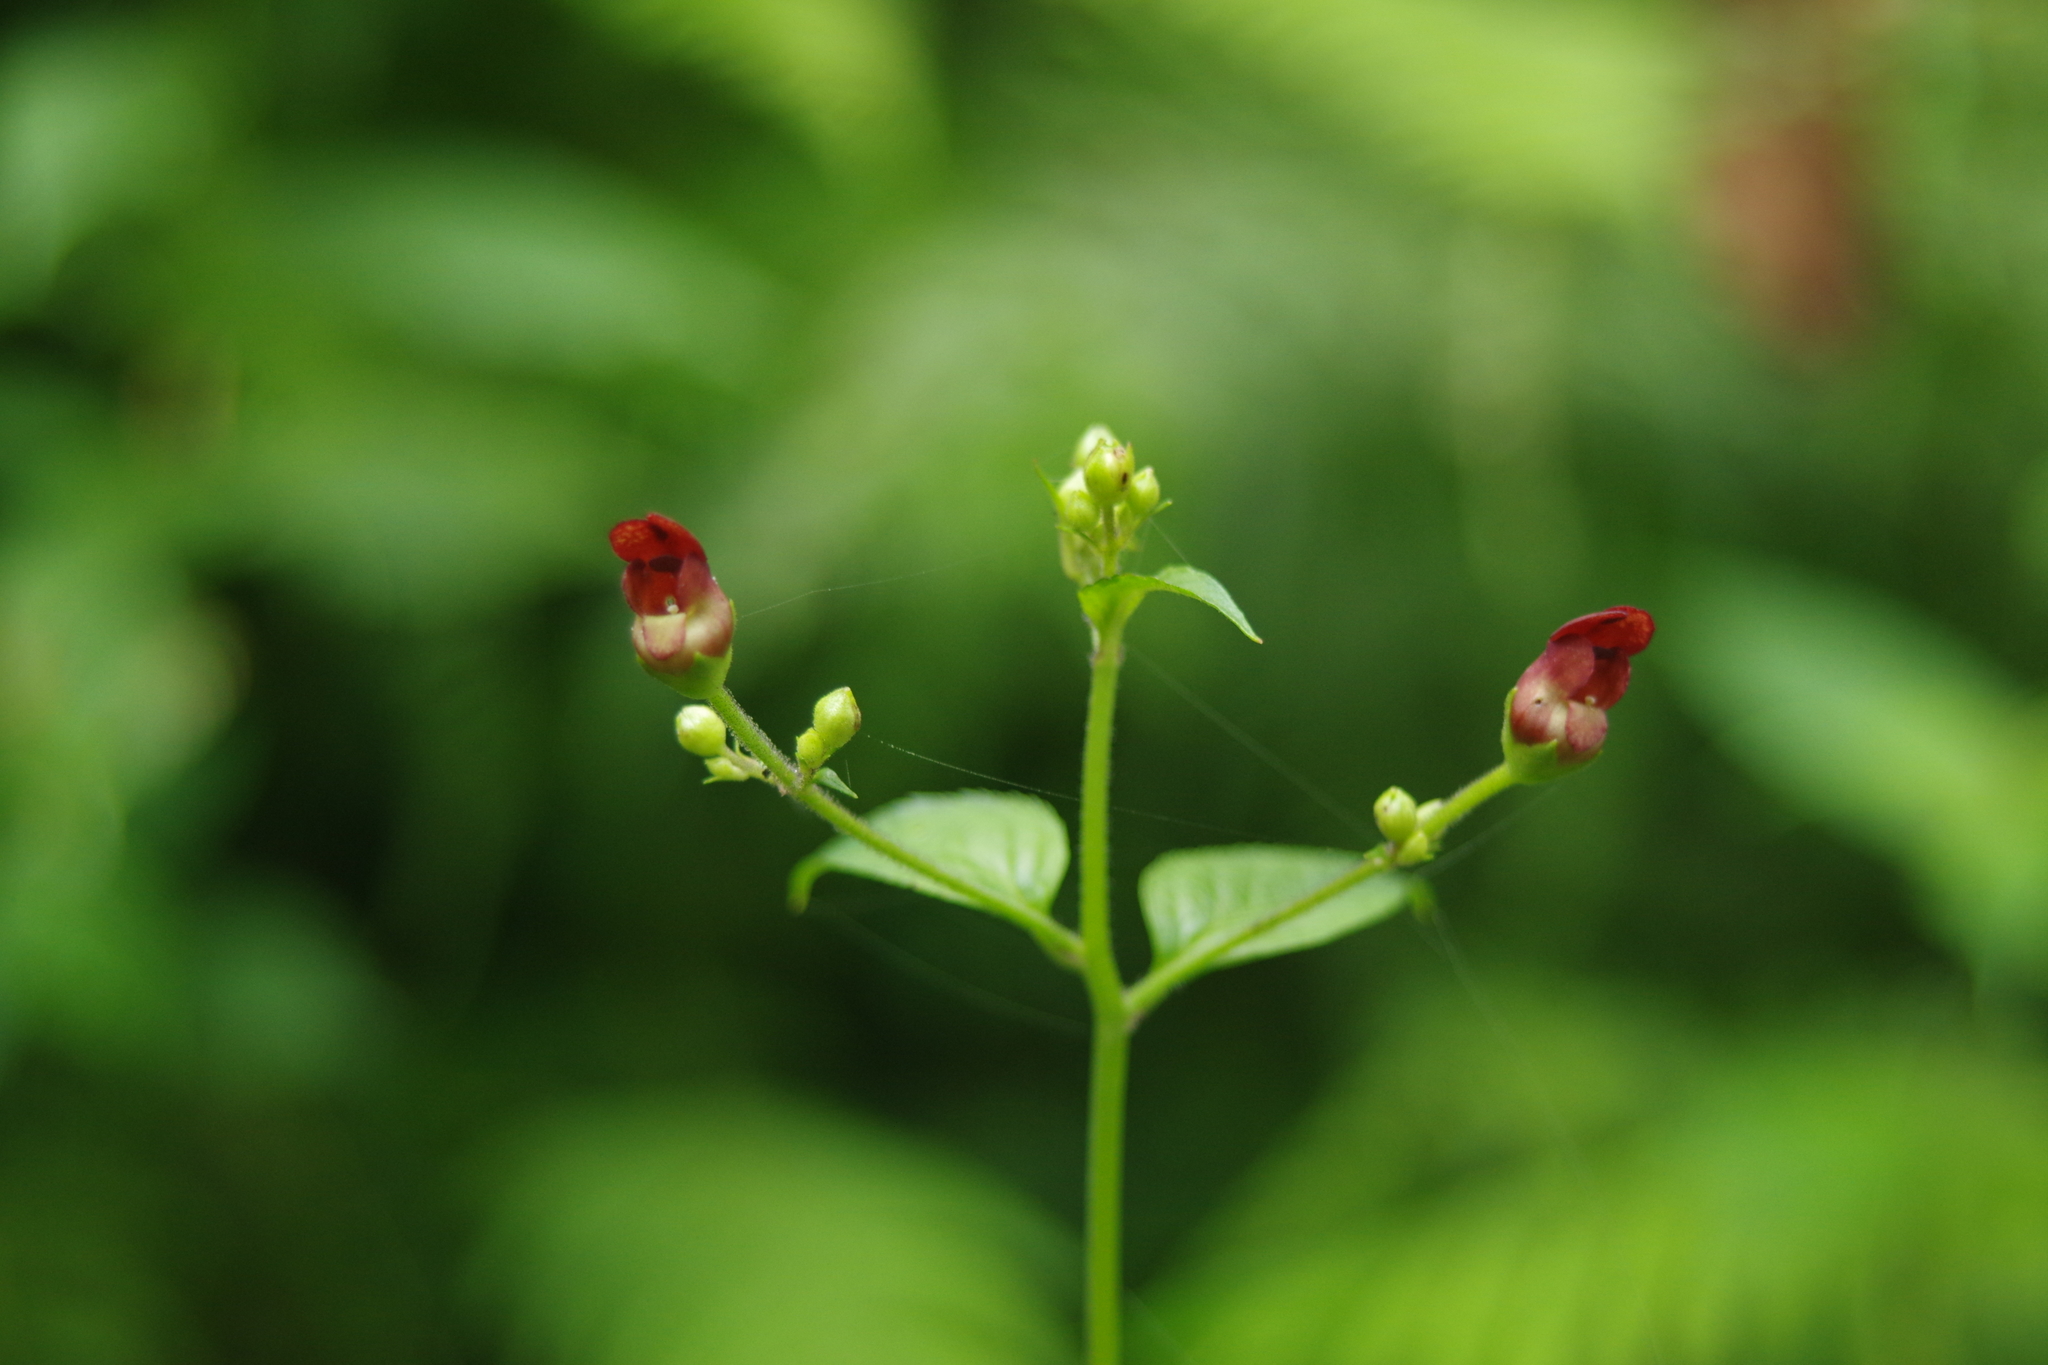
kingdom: Plantae
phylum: Tracheophyta
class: Magnoliopsida
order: Lamiales
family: Scrophulariaceae
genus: Scrophularia
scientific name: Scrophularia yoshimurae
